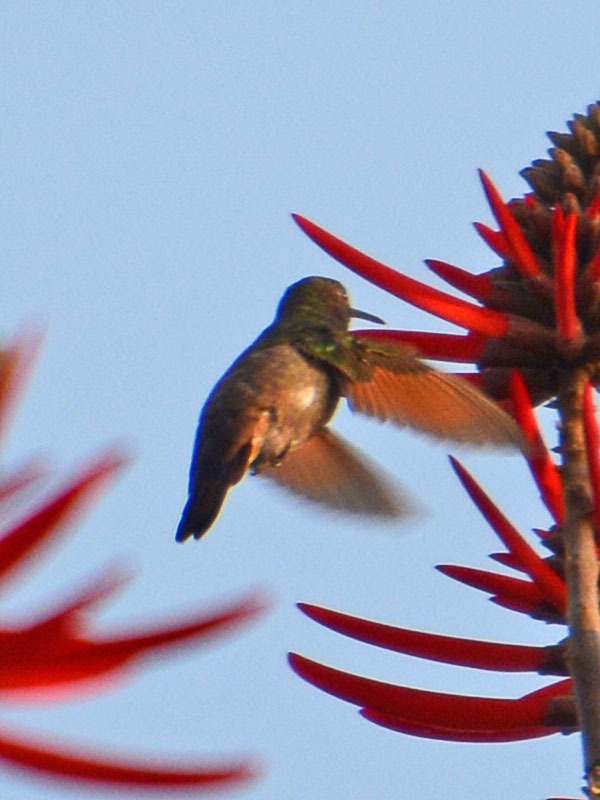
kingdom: Animalia
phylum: Chordata
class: Aves
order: Apodiformes
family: Trochilidae
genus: Saucerottia
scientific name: Saucerottia beryllina
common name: Berylline hummingbird
